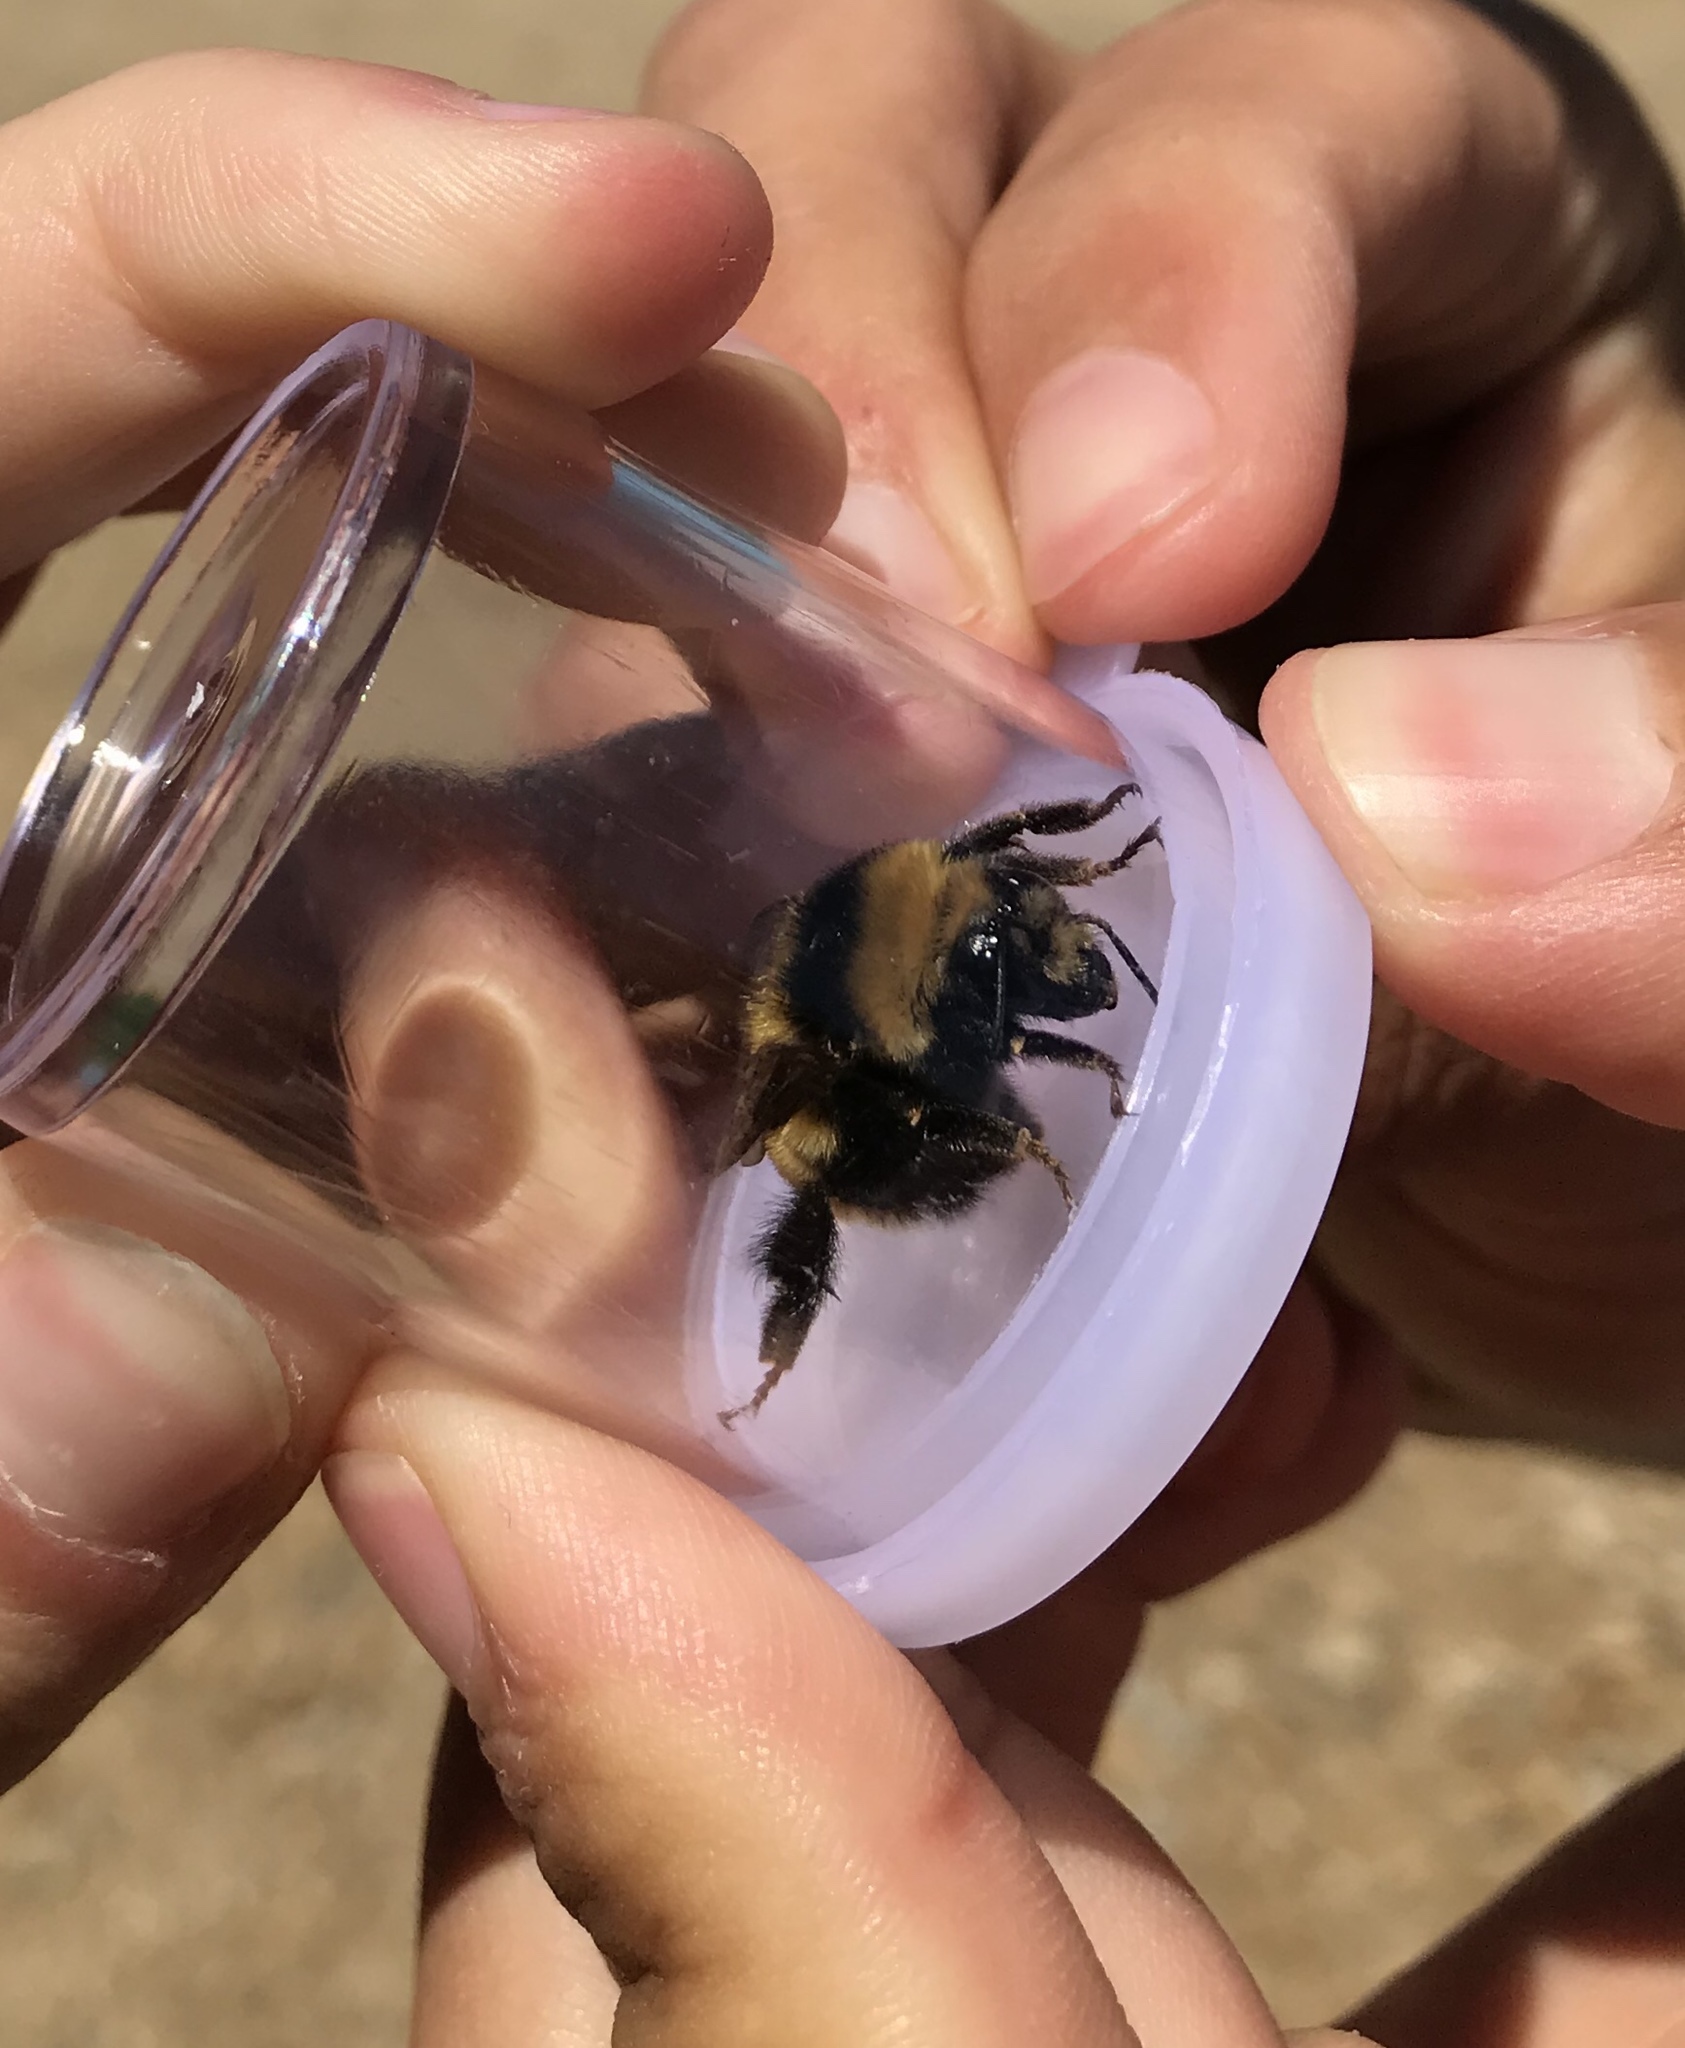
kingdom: Animalia
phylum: Arthropoda
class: Insecta
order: Hymenoptera
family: Apidae
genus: Bombus
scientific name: Bombus borealis
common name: Northern amber bumble bee
